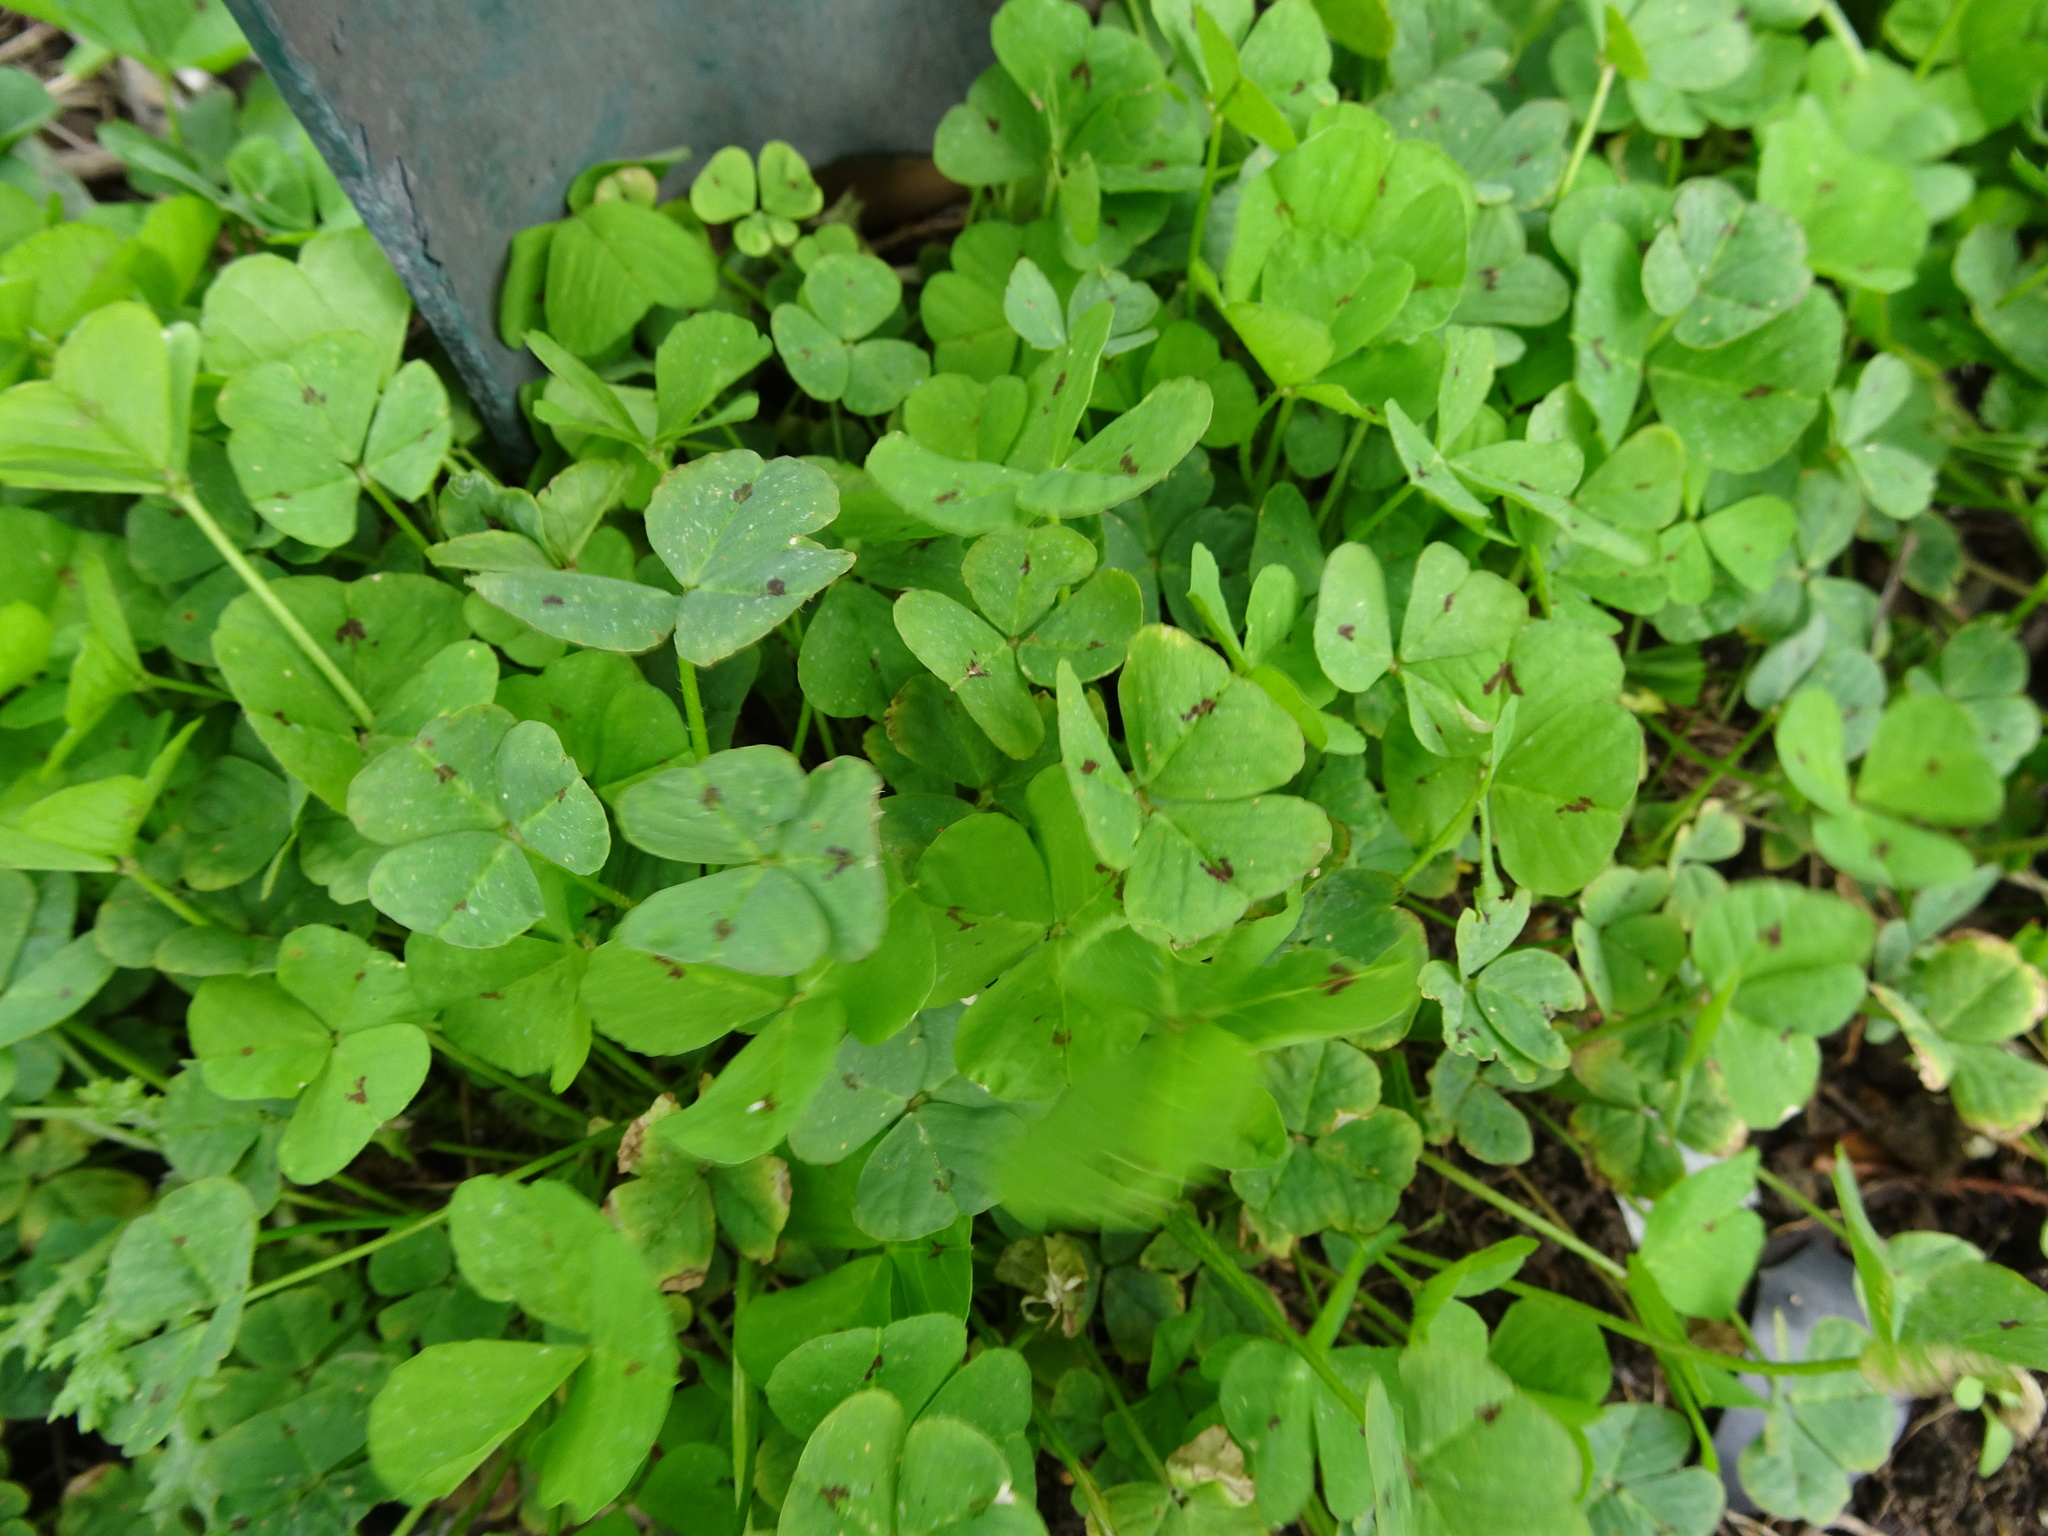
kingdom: Plantae
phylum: Tracheophyta
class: Magnoliopsida
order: Fabales
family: Fabaceae
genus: Medicago
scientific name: Medicago arabica
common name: Spotted medick
